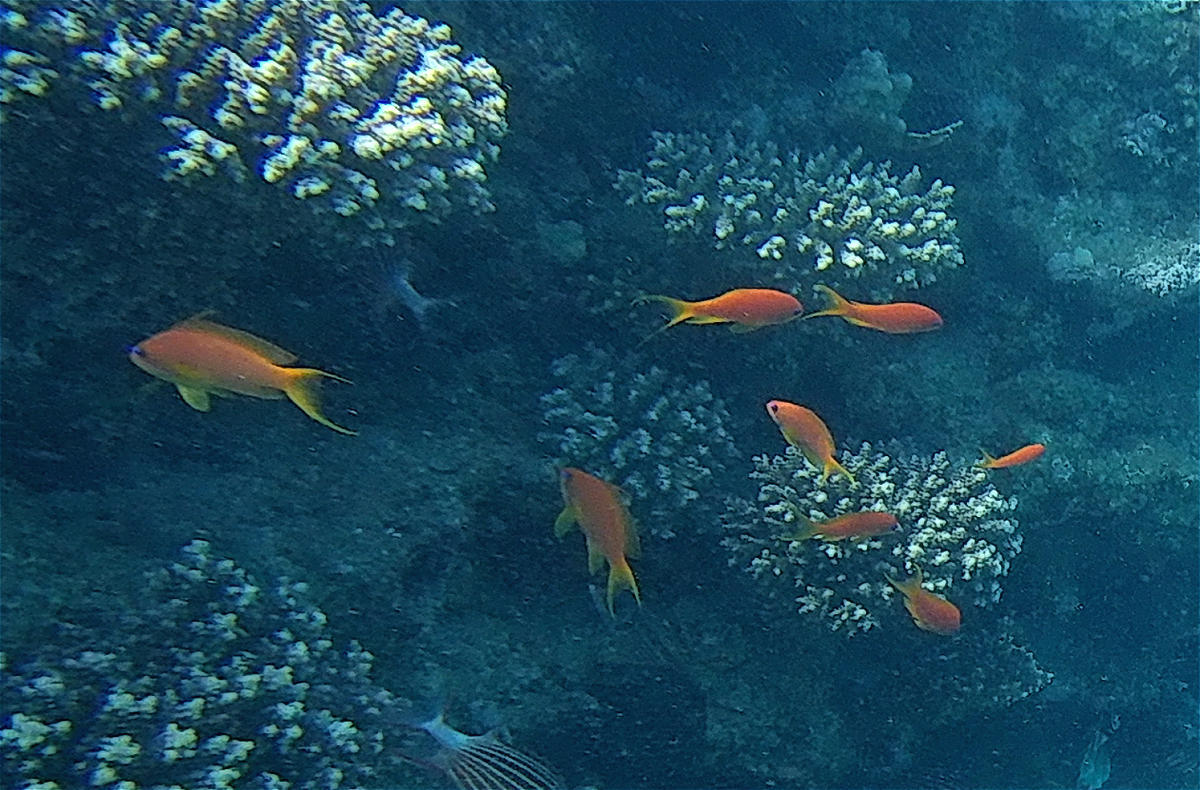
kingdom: Animalia
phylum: Chordata
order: Perciformes
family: Serranidae
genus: Pseudanthias
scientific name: Pseudanthias squamipinnis
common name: Scalefin anthias
